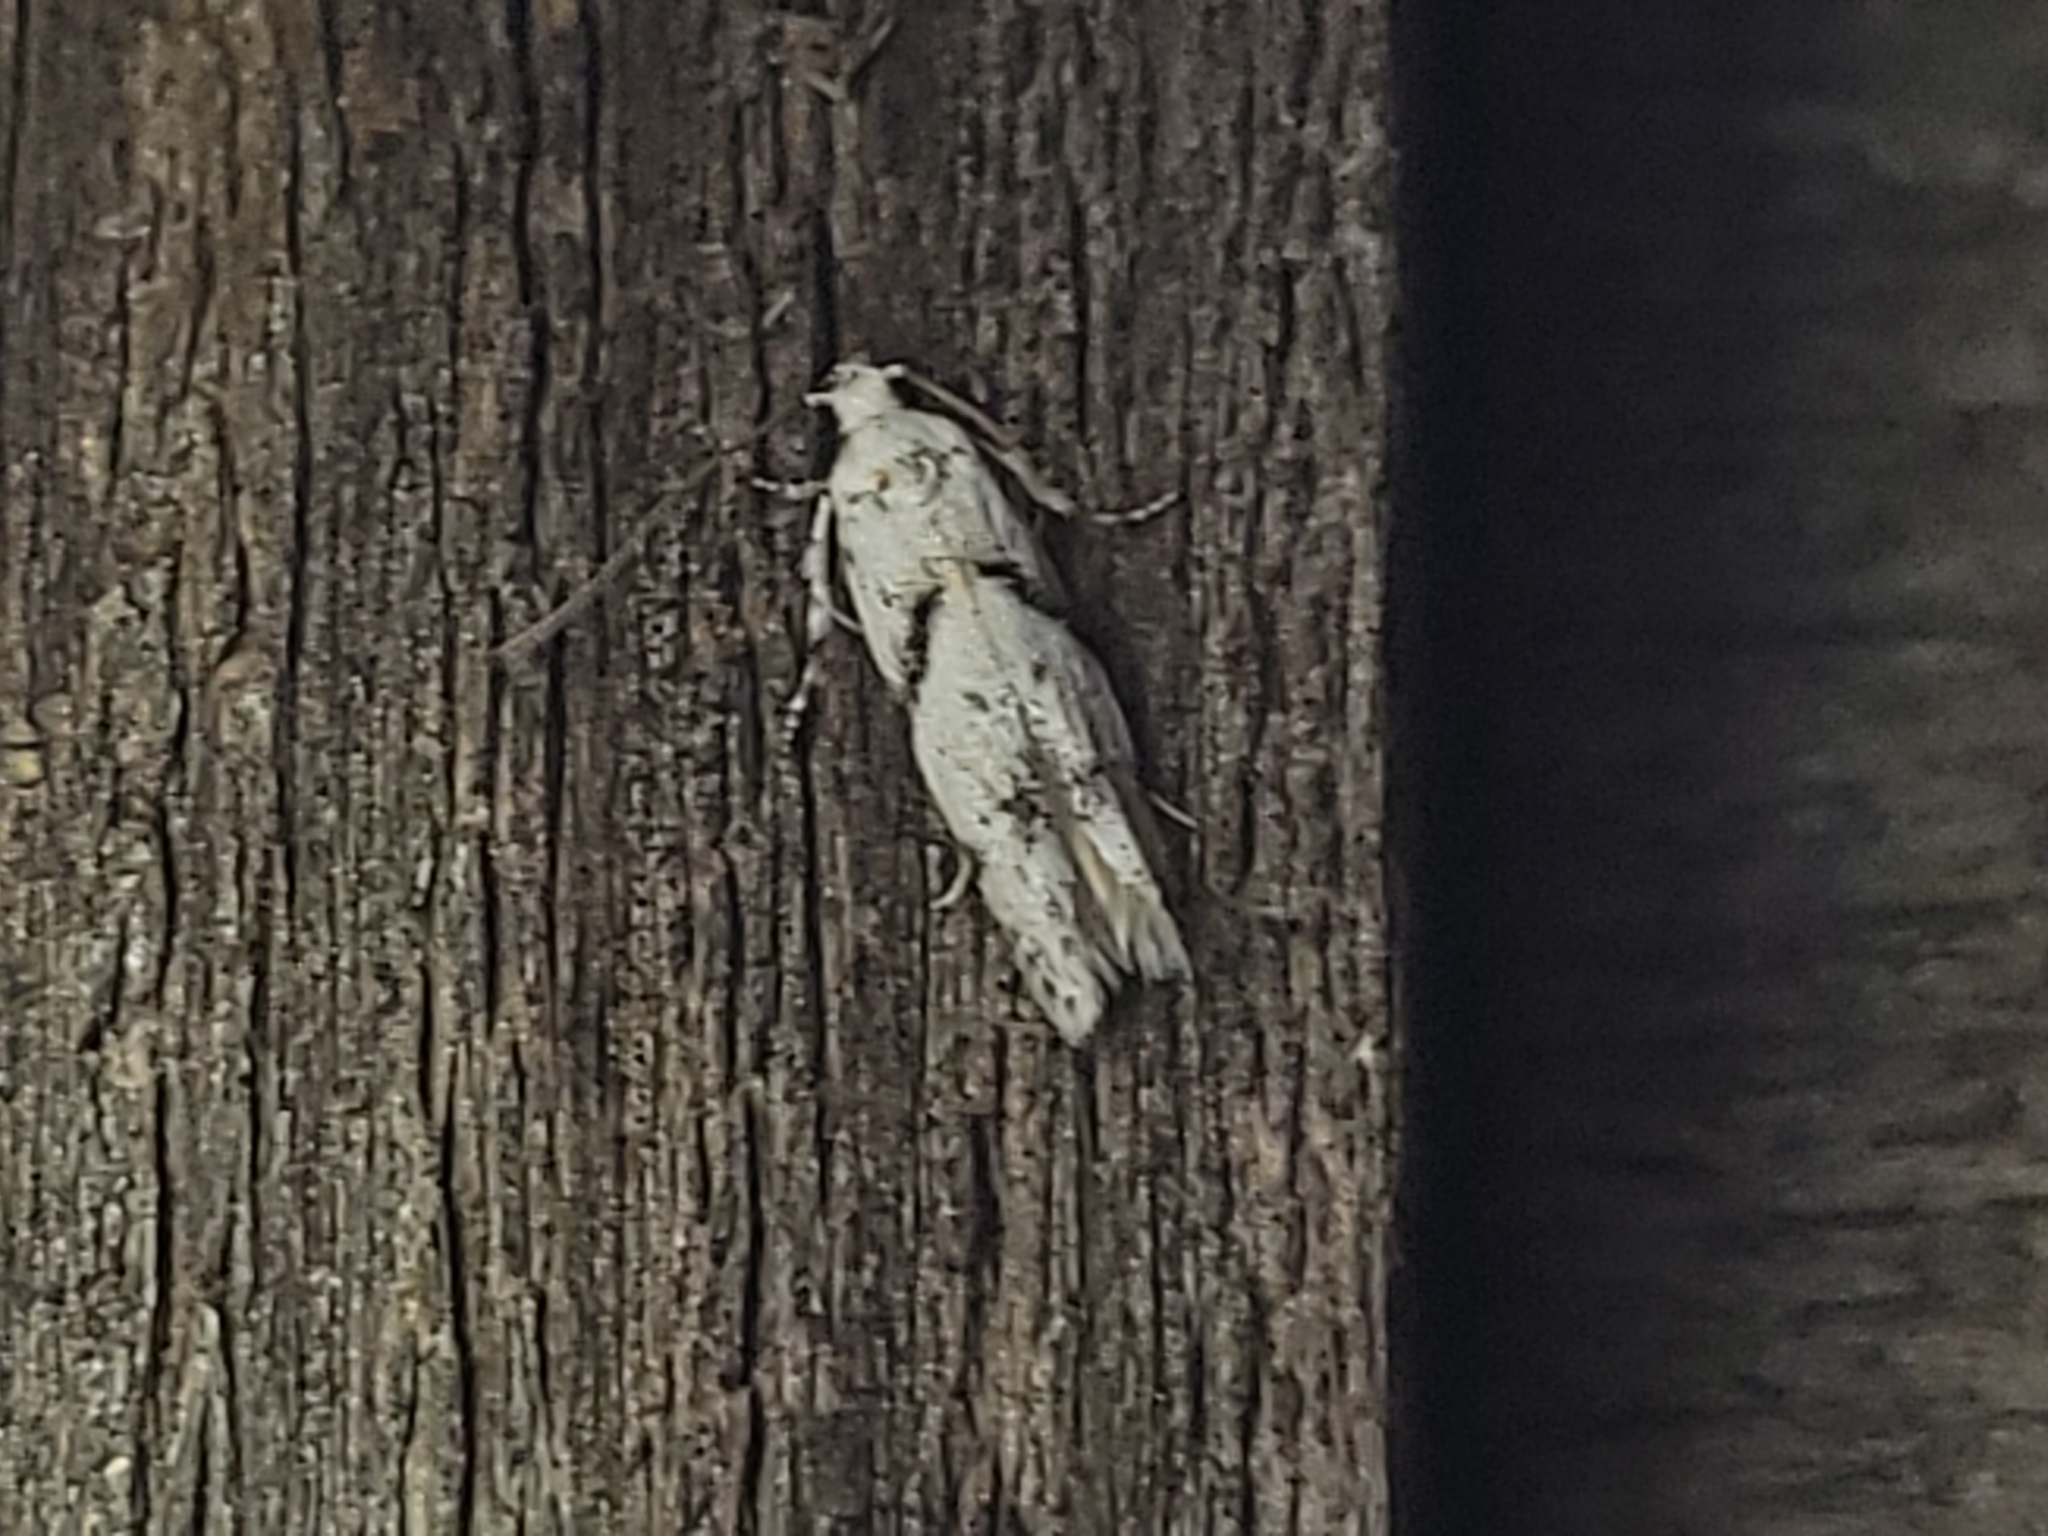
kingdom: Animalia
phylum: Arthropoda
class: Insecta
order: Lepidoptera
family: Gelechiidae
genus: Arogalea
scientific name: Arogalea cristifasciella
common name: White stripe-backed moth
